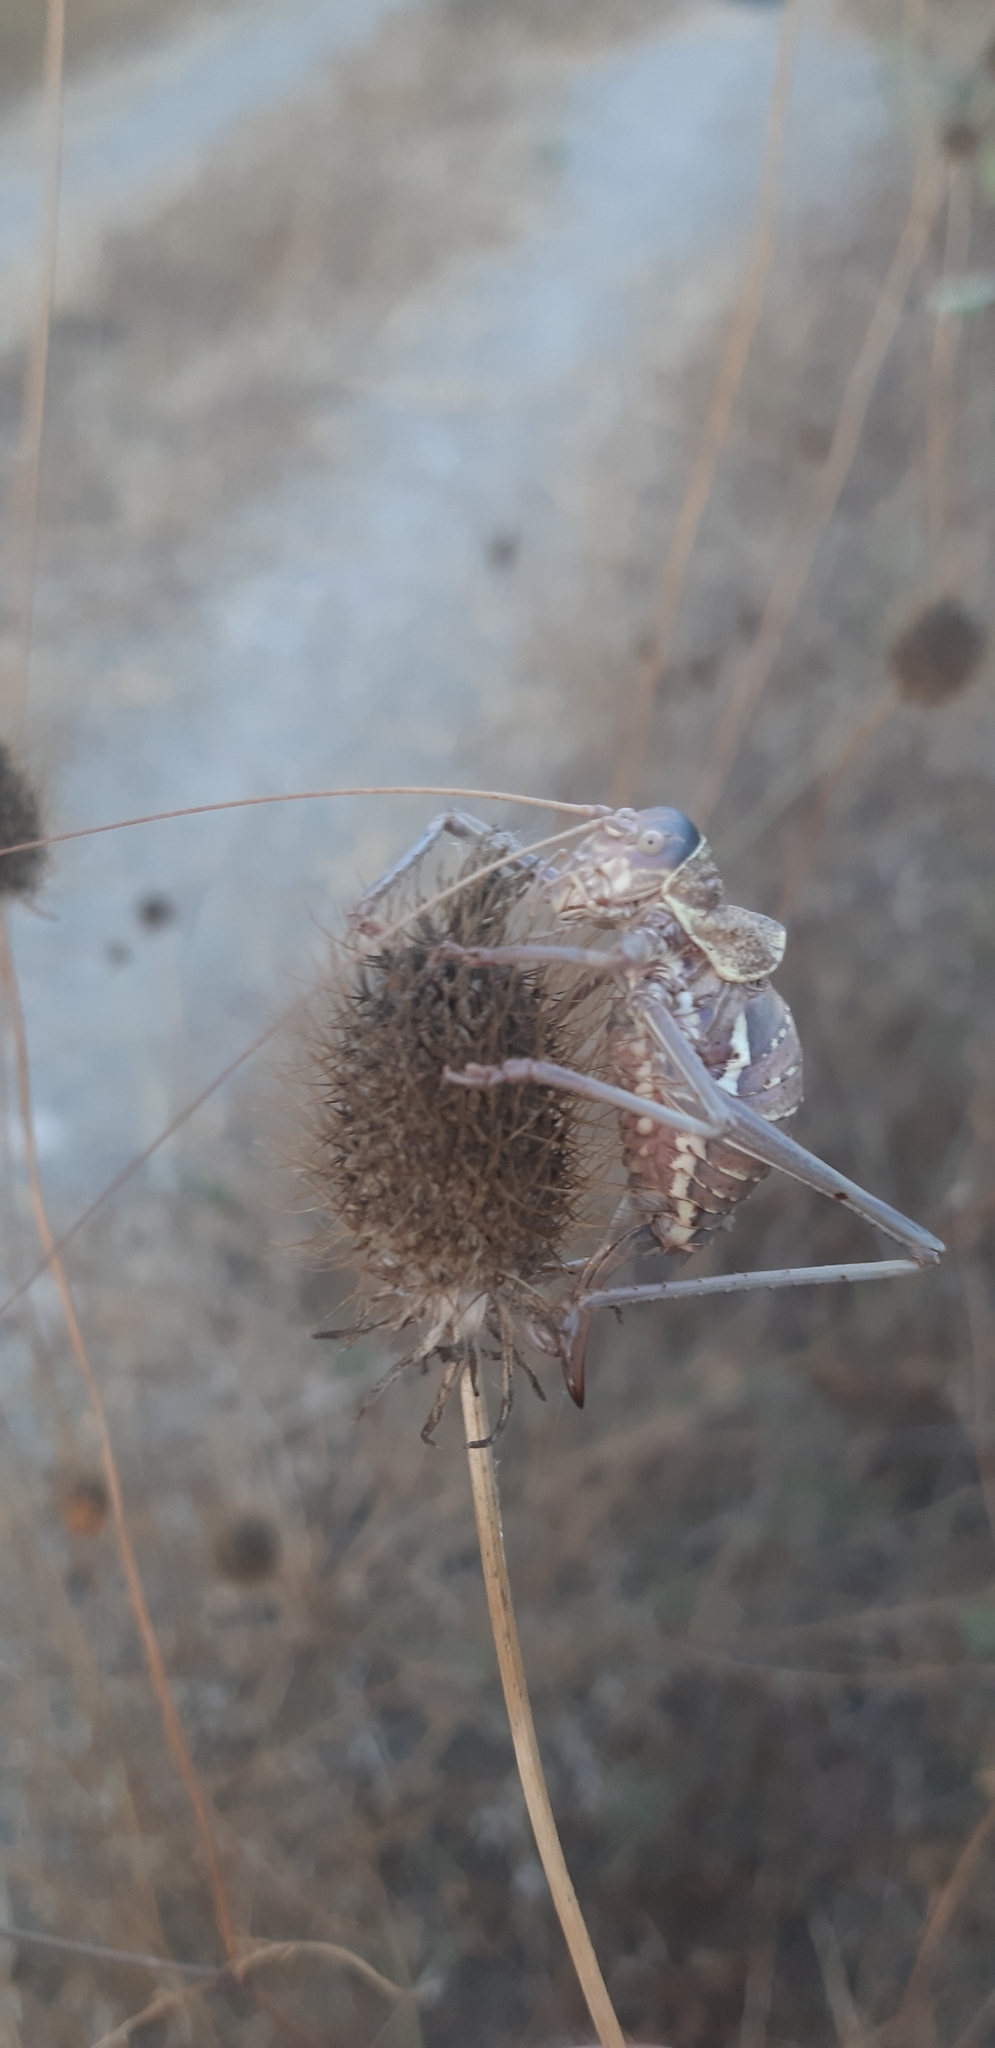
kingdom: Animalia
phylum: Arthropoda
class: Insecta
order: Orthoptera
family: Tettigoniidae
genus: Uromenus
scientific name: Uromenus elegans
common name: Elegant saddle bush-cricket
